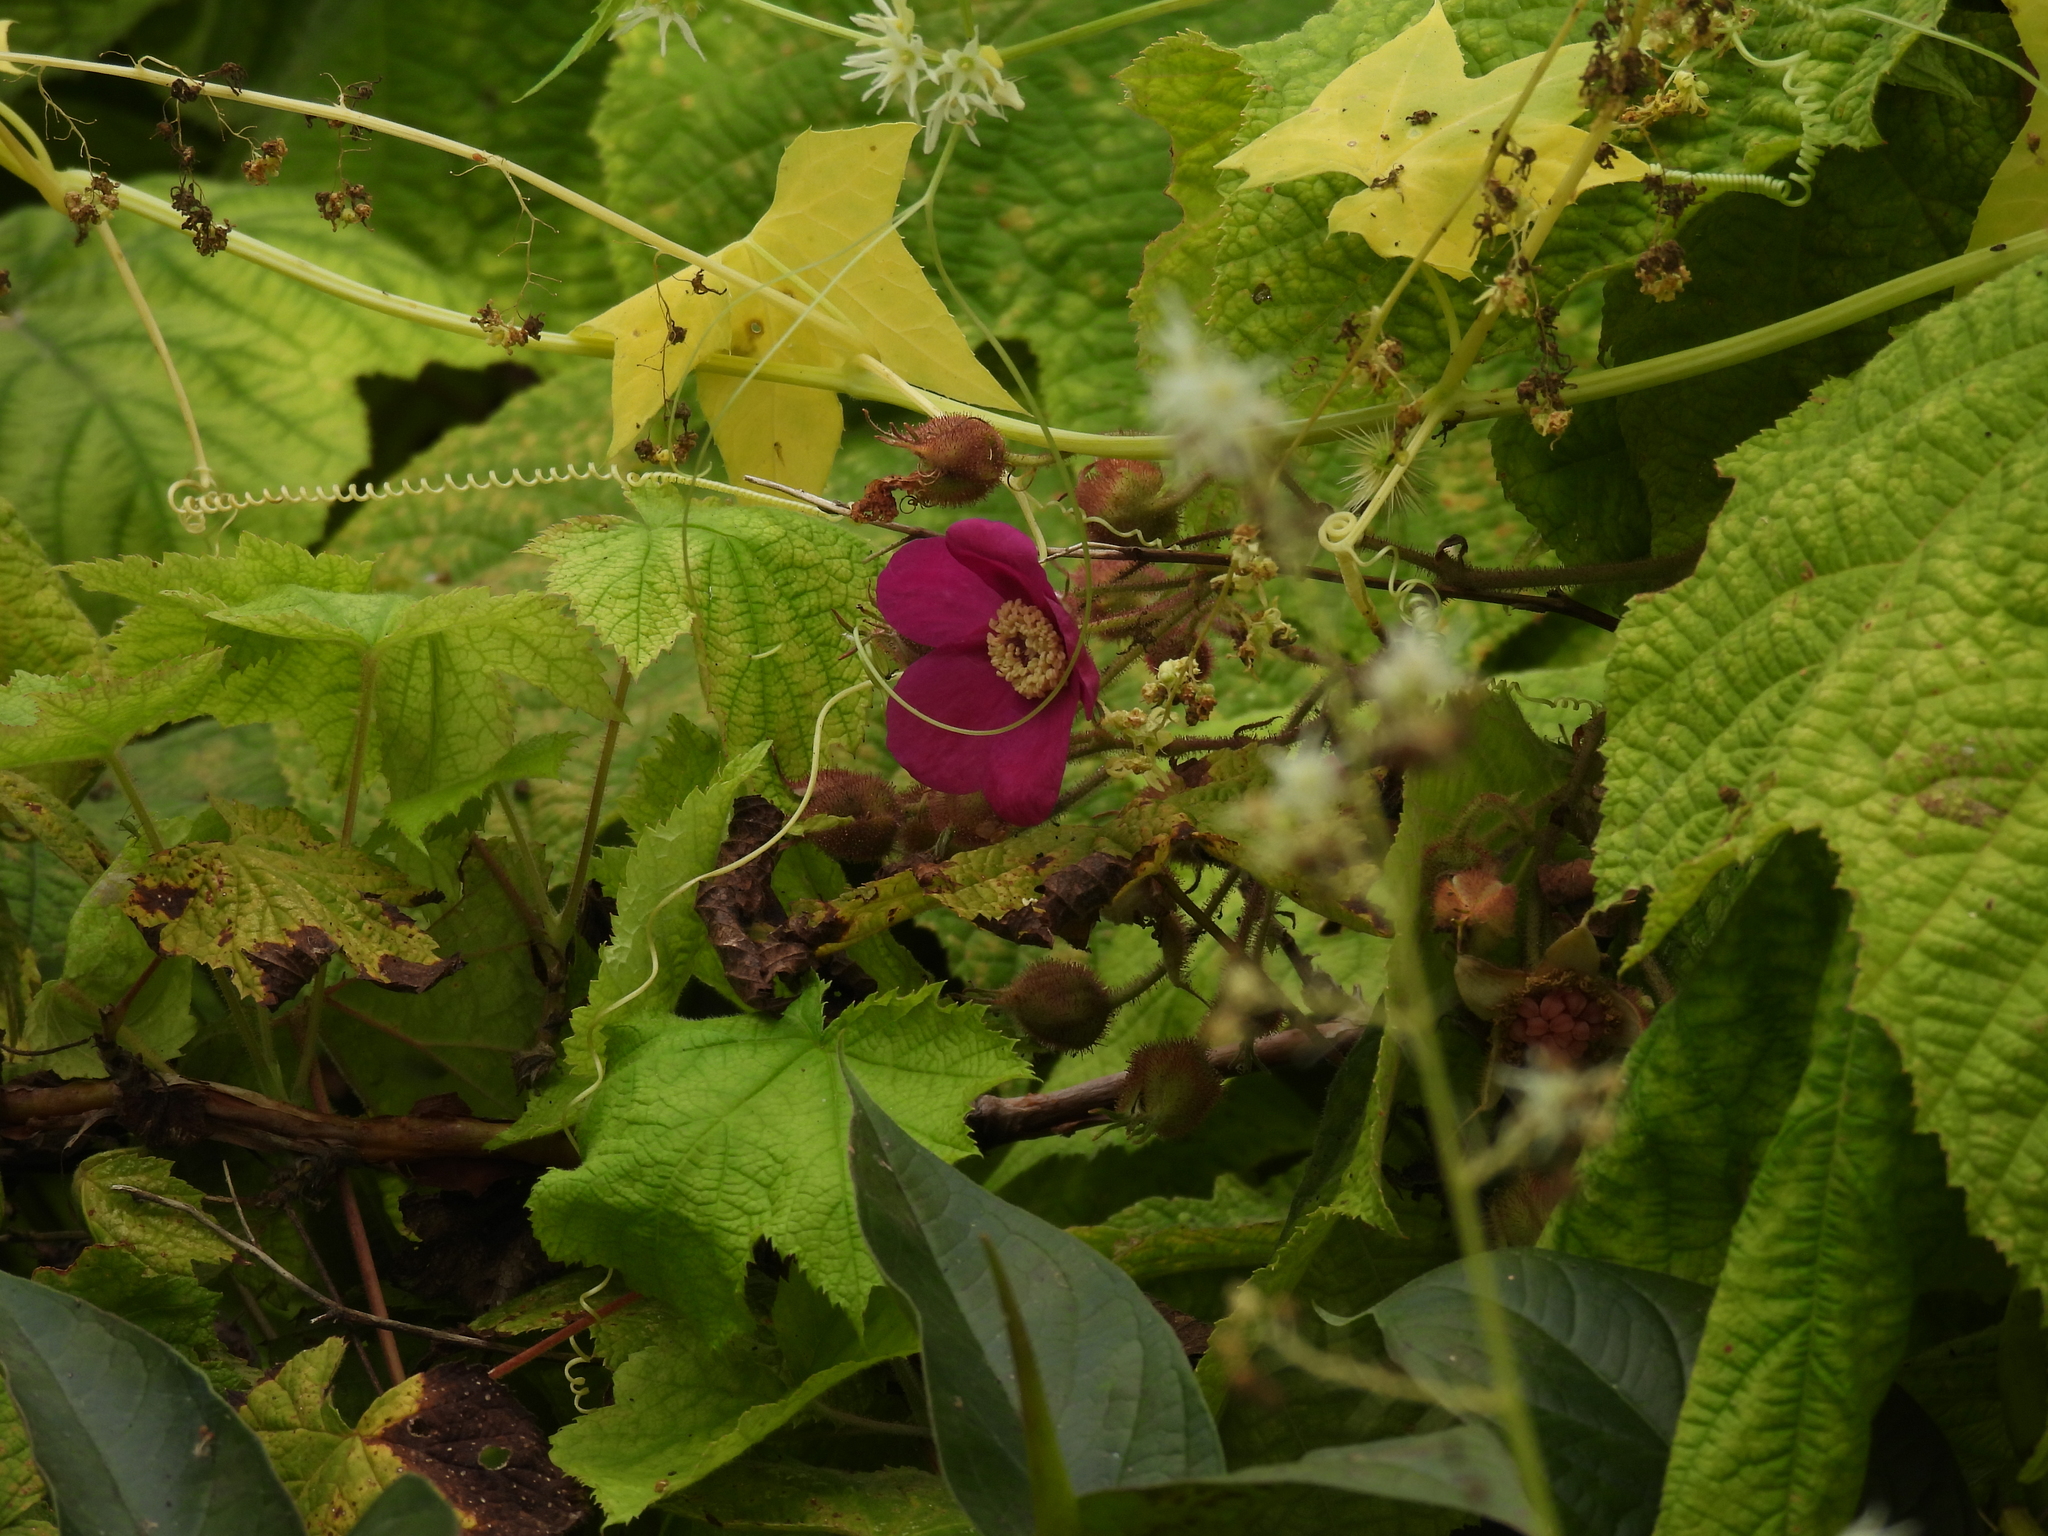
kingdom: Plantae
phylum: Tracheophyta
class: Magnoliopsida
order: Rosales
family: Rosaceae
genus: Rubus
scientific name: Rubus odoratus
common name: Purple-flowered raspberry
